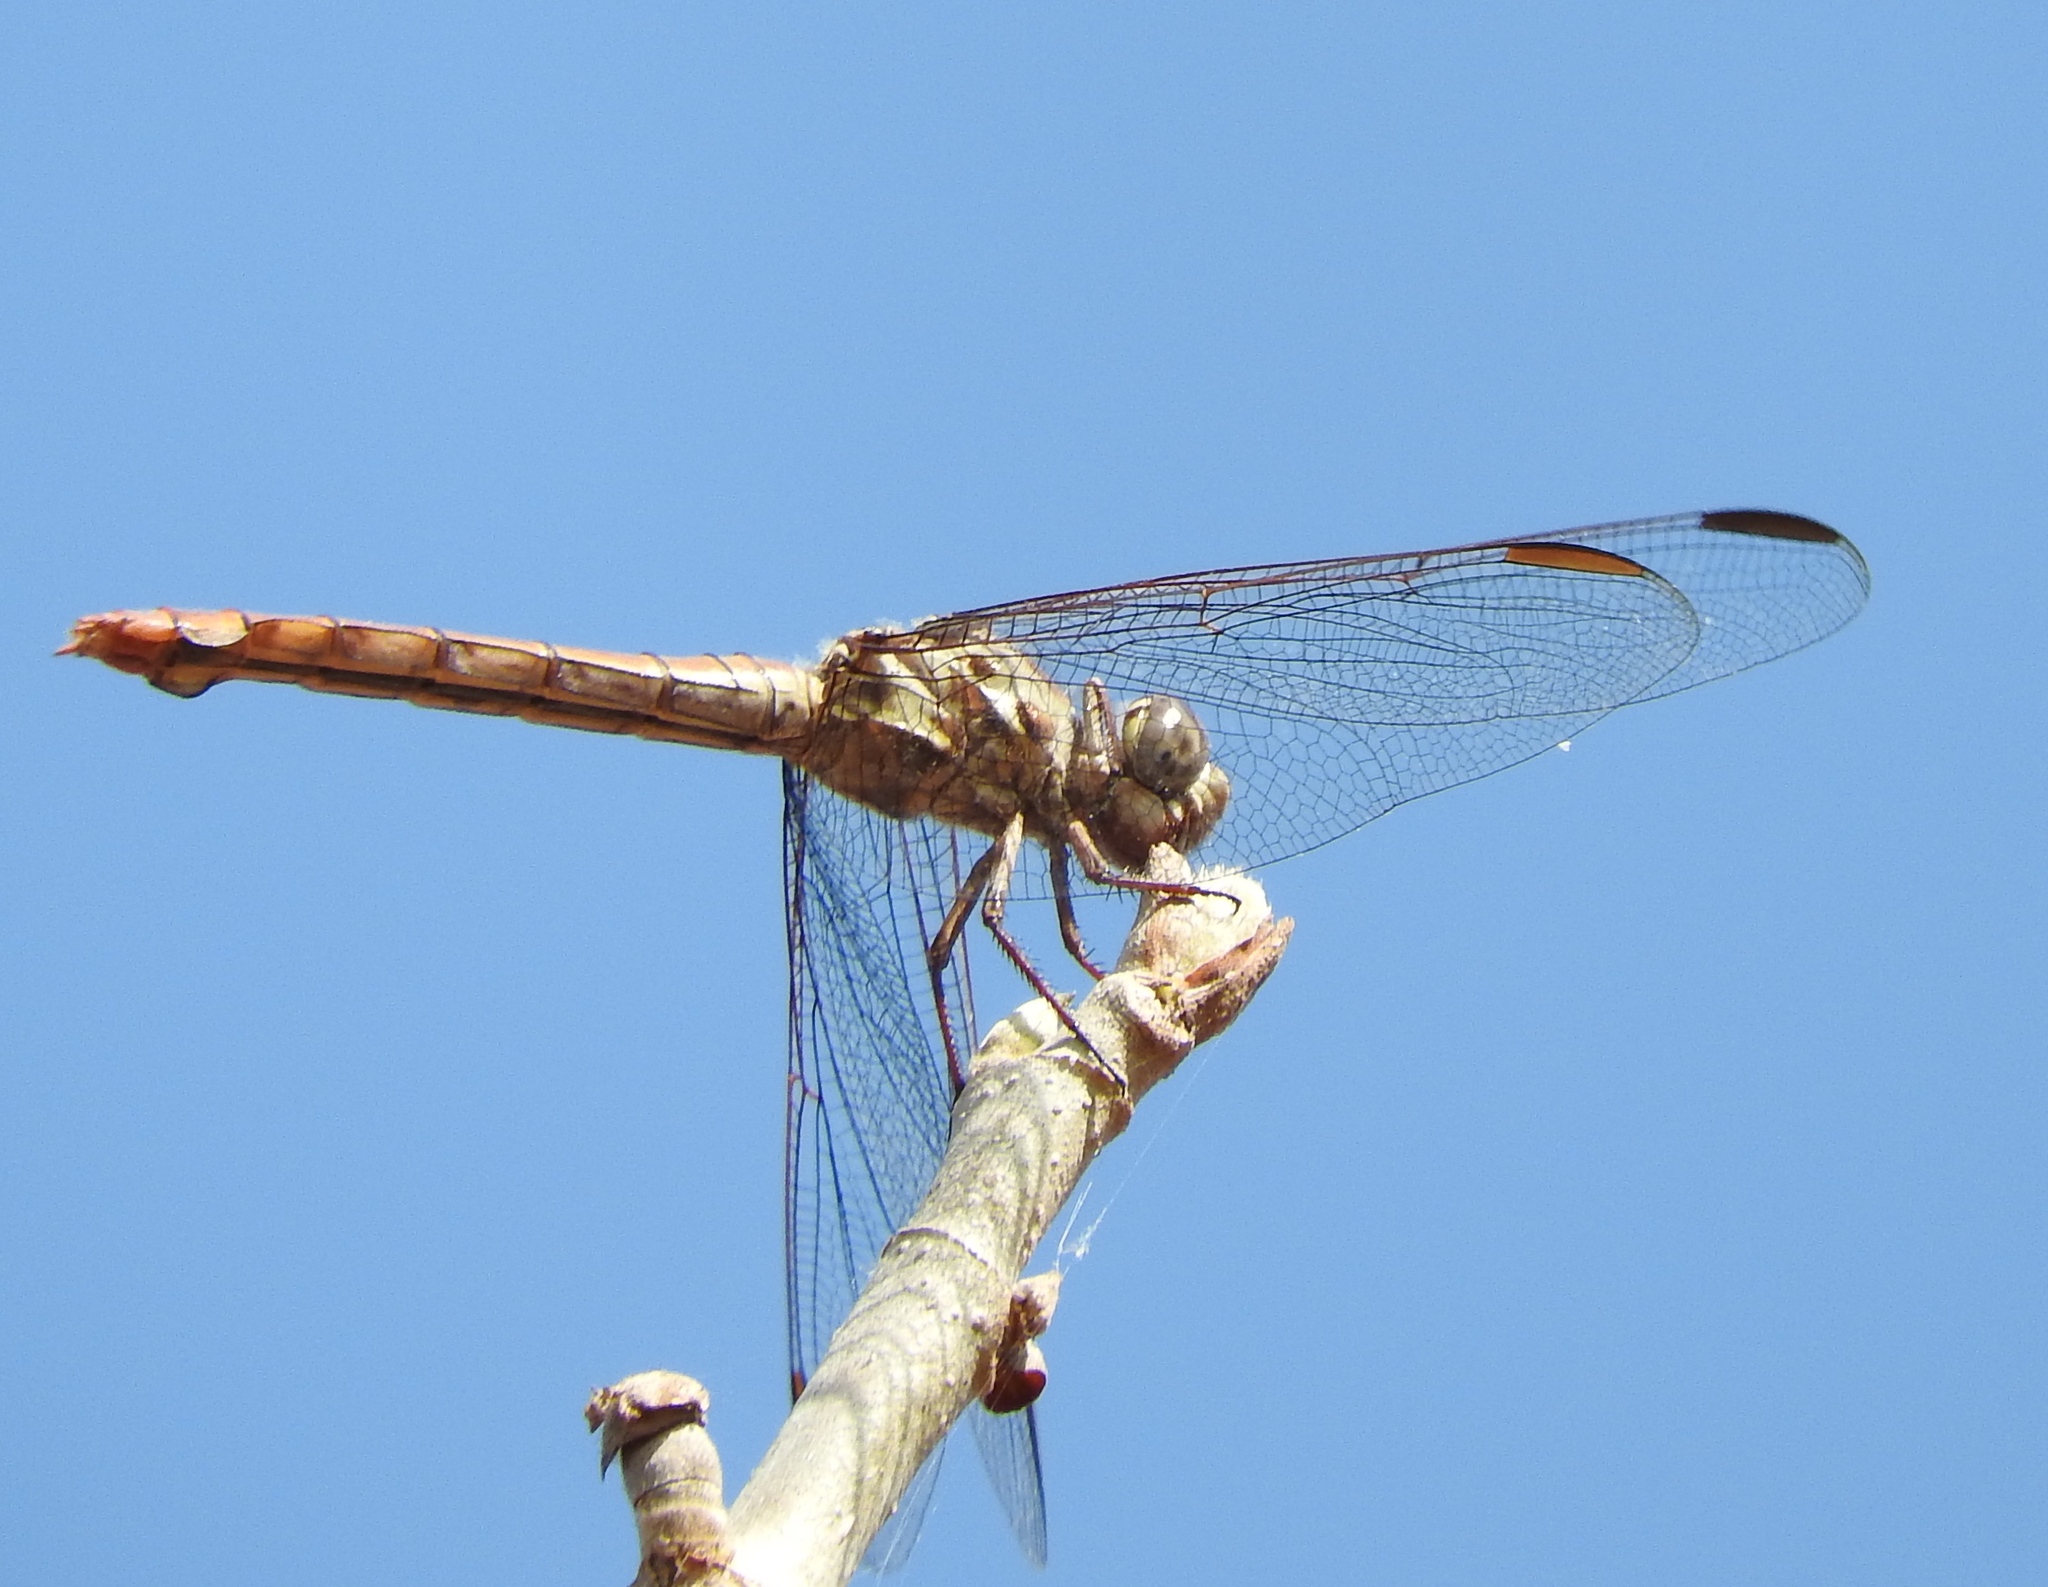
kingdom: Animalia
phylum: Arthropoda
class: Insecta
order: Odonata
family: Libellulidae
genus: Orthemis
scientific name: Orthemis ferruginea
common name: Roseate skimmer
